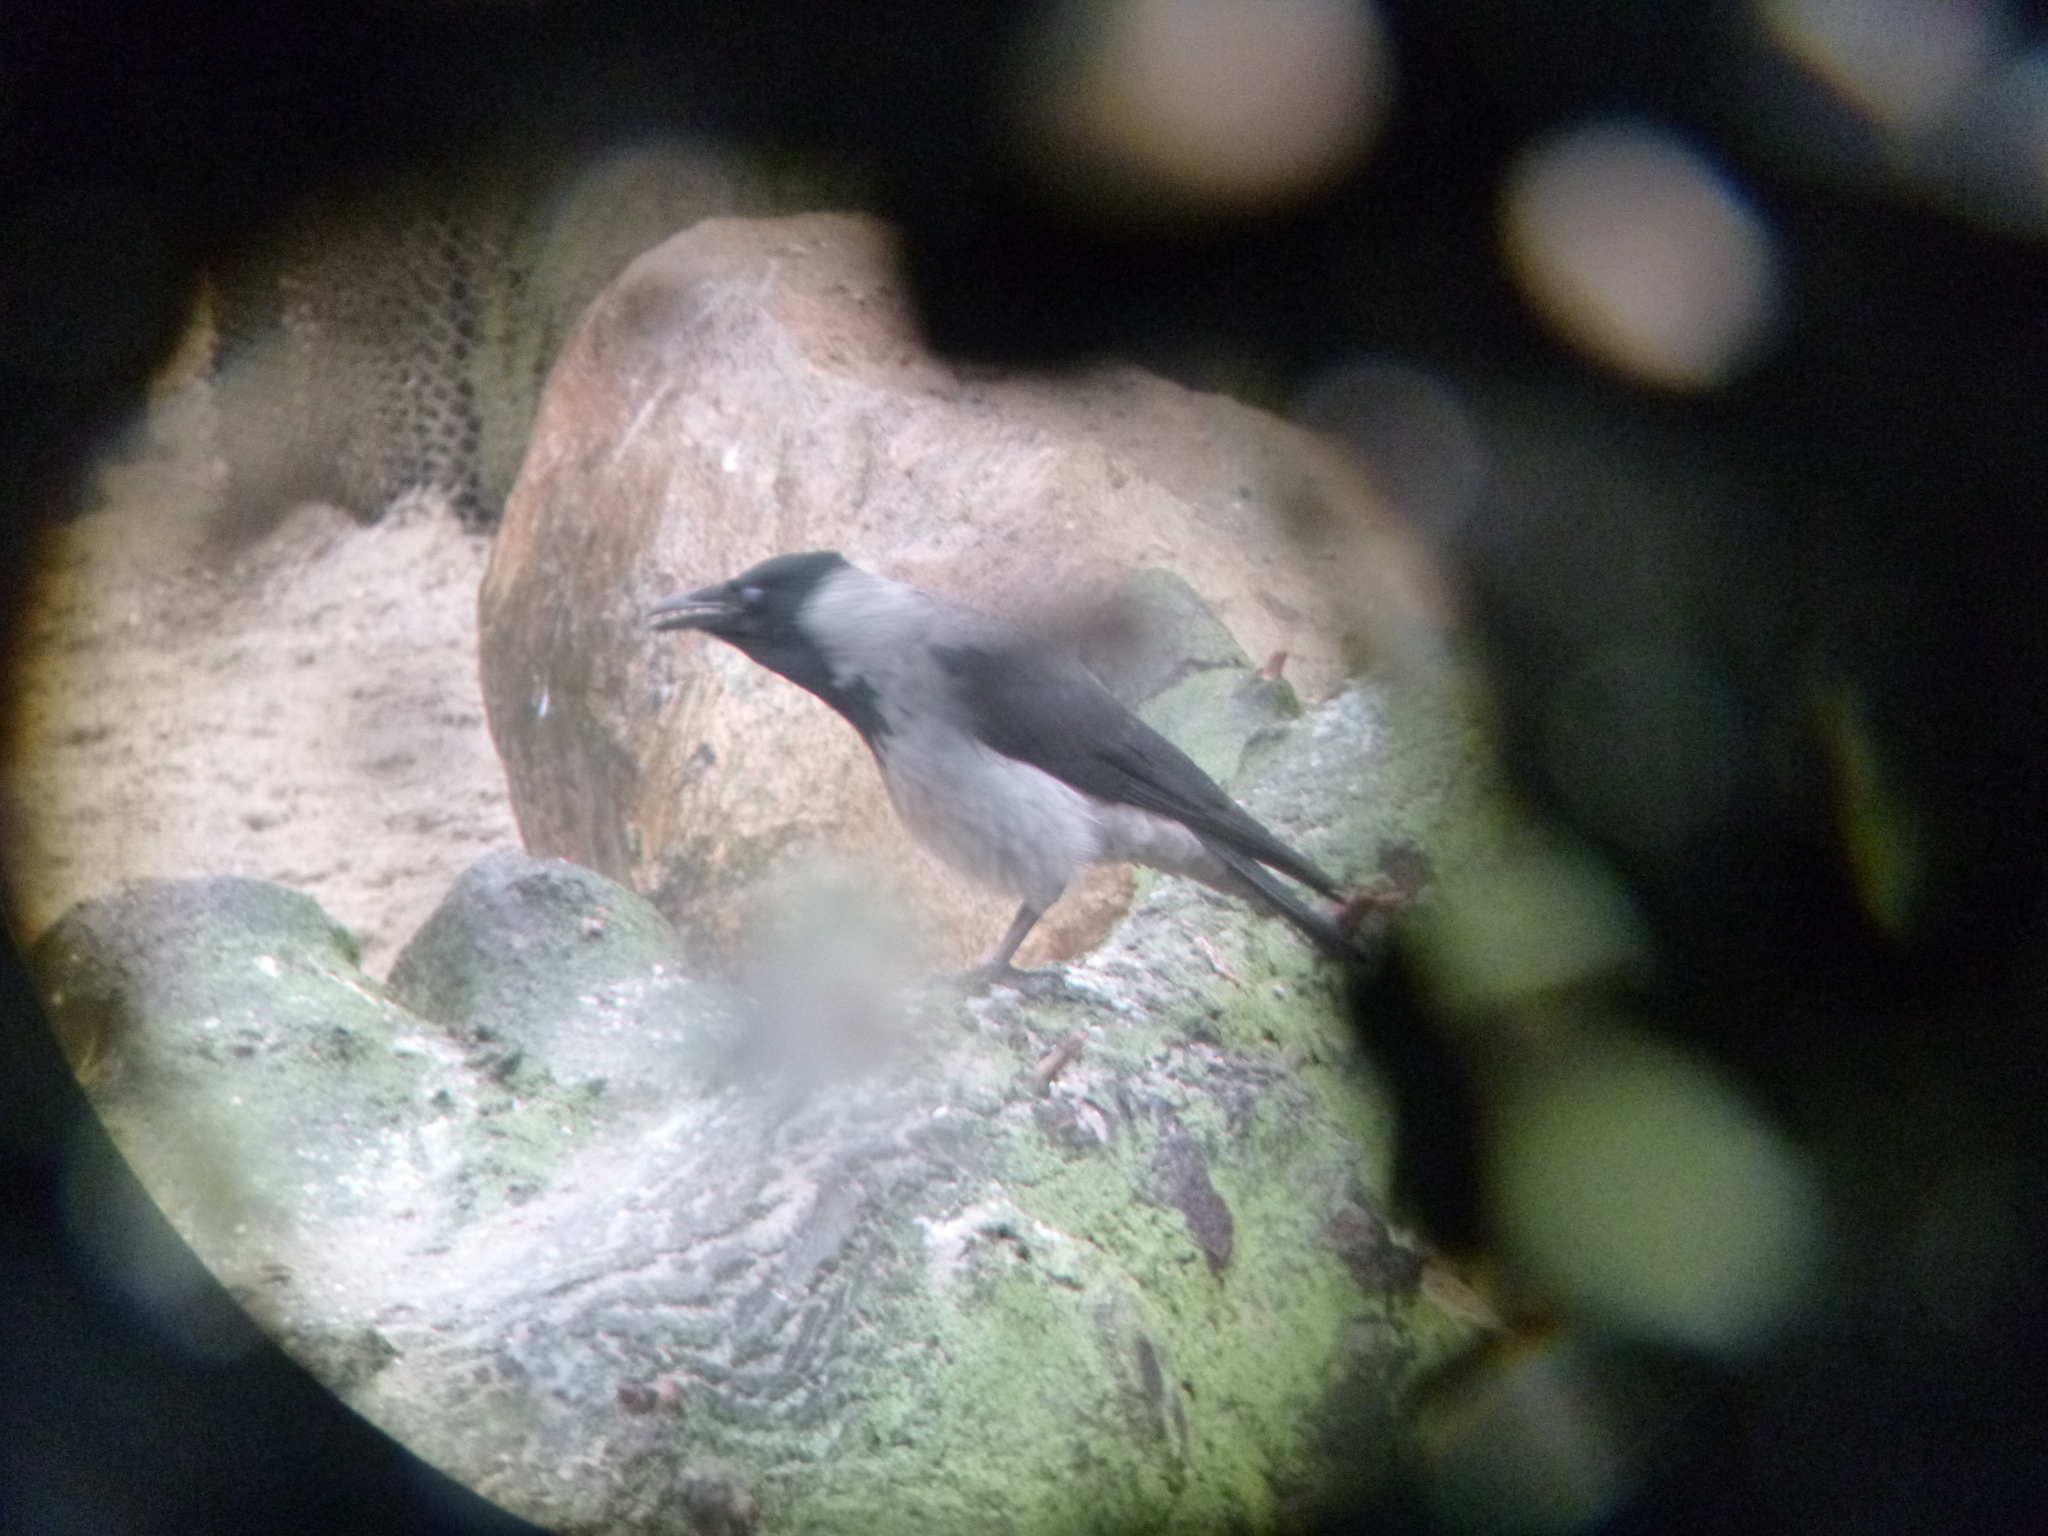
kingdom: Animalia
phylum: Chordata
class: Aves
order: Passeriformes
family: Corvidae
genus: Corvus
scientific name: Corvus cornix
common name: Hooded crow
